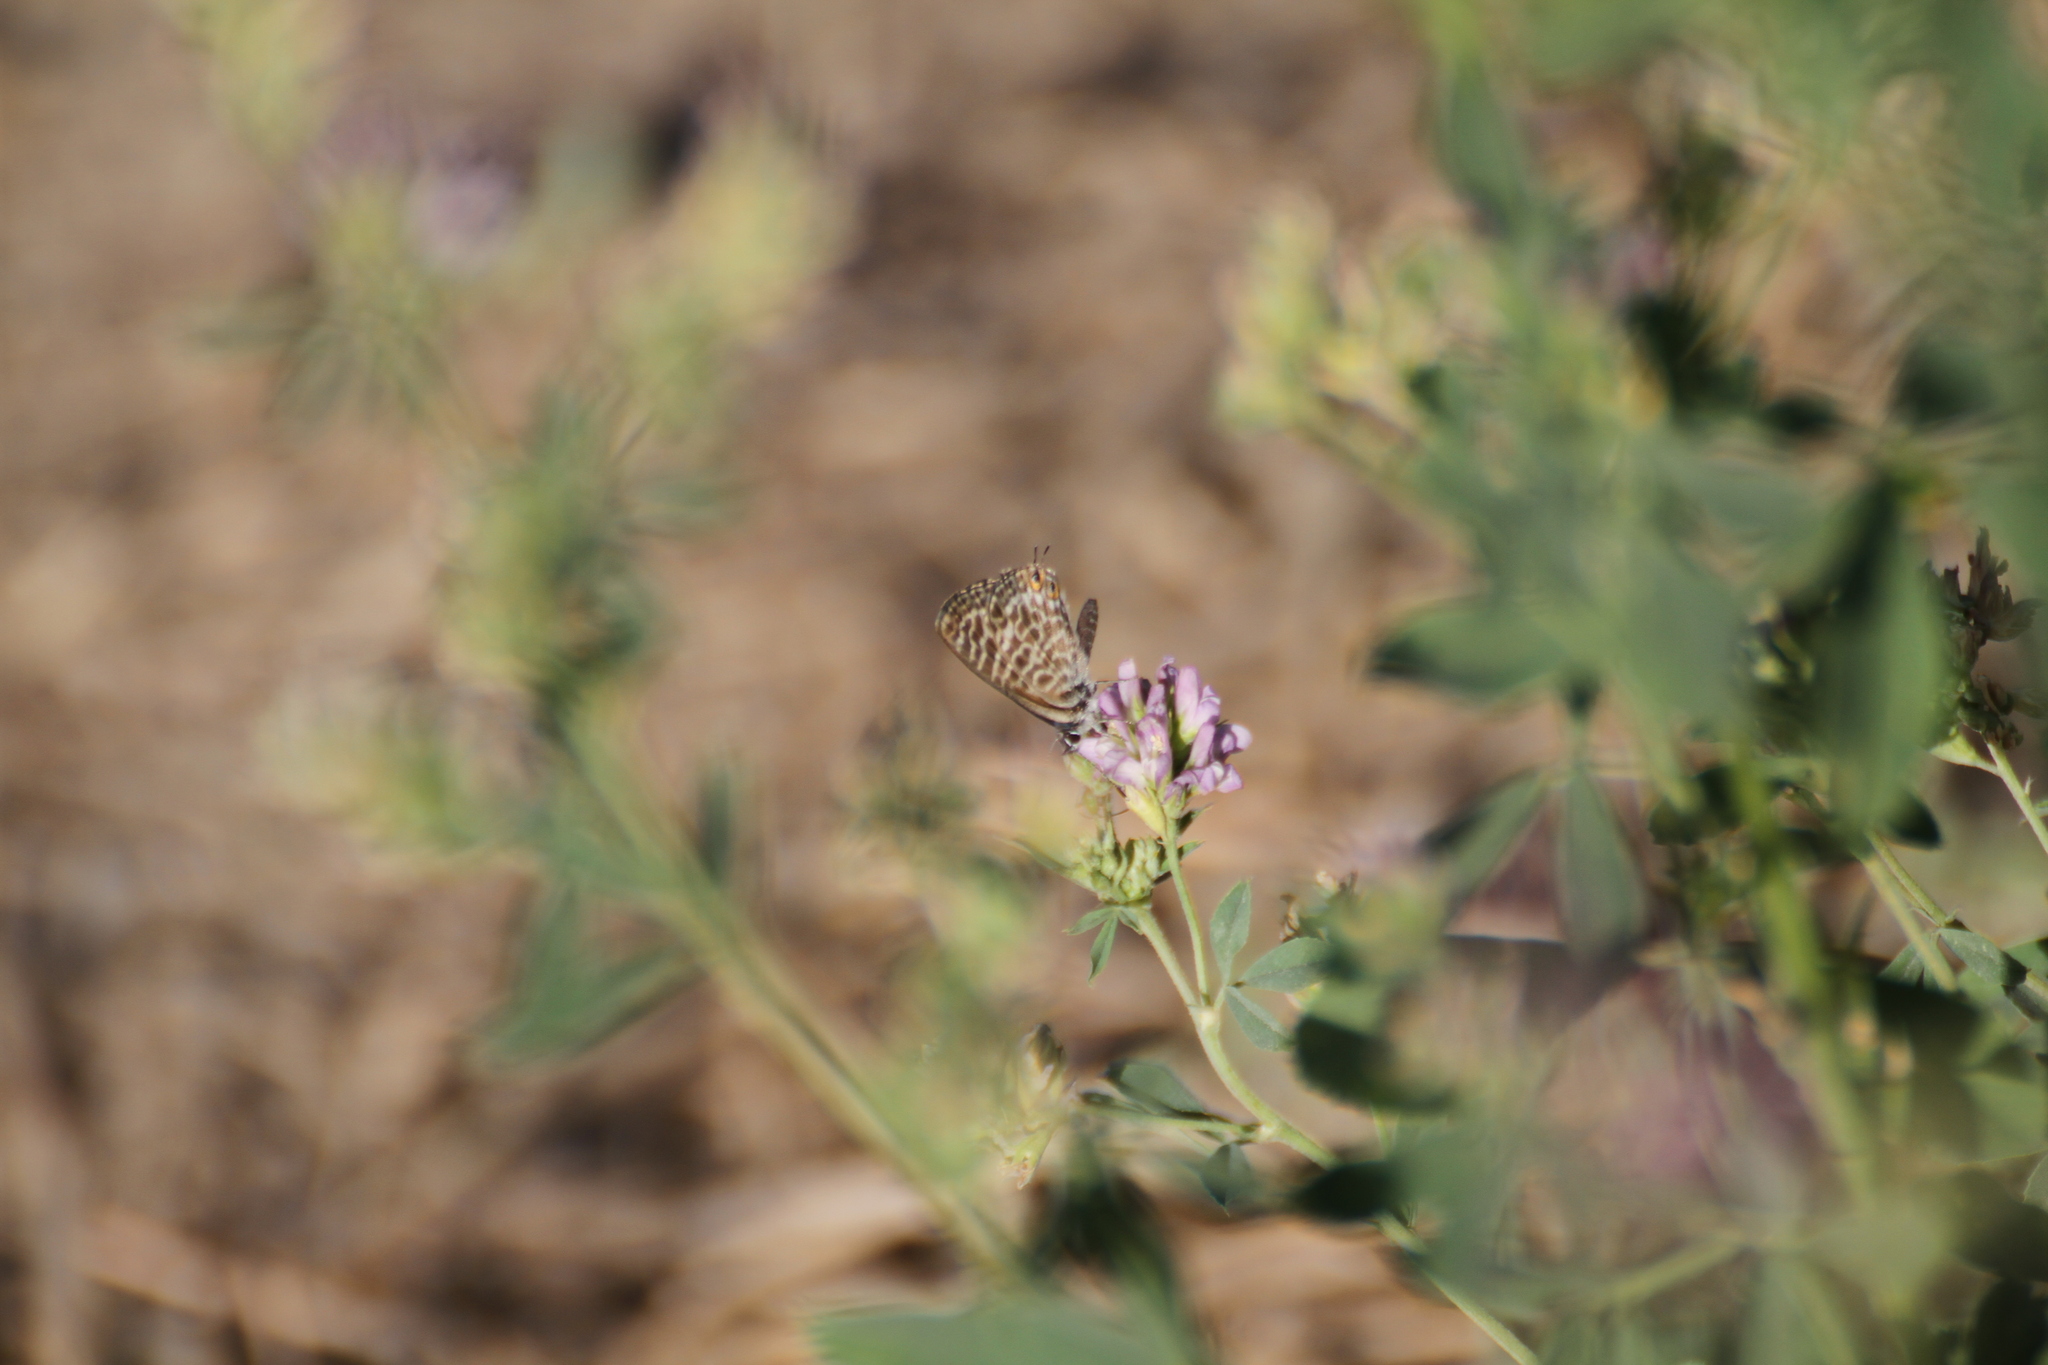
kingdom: Animalia
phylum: Arthropoda
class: Insecta
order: Lepidoptera
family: Lycaenidae
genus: Leptotes
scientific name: Leptotes pirithous
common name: Lang's short-tailed blue
